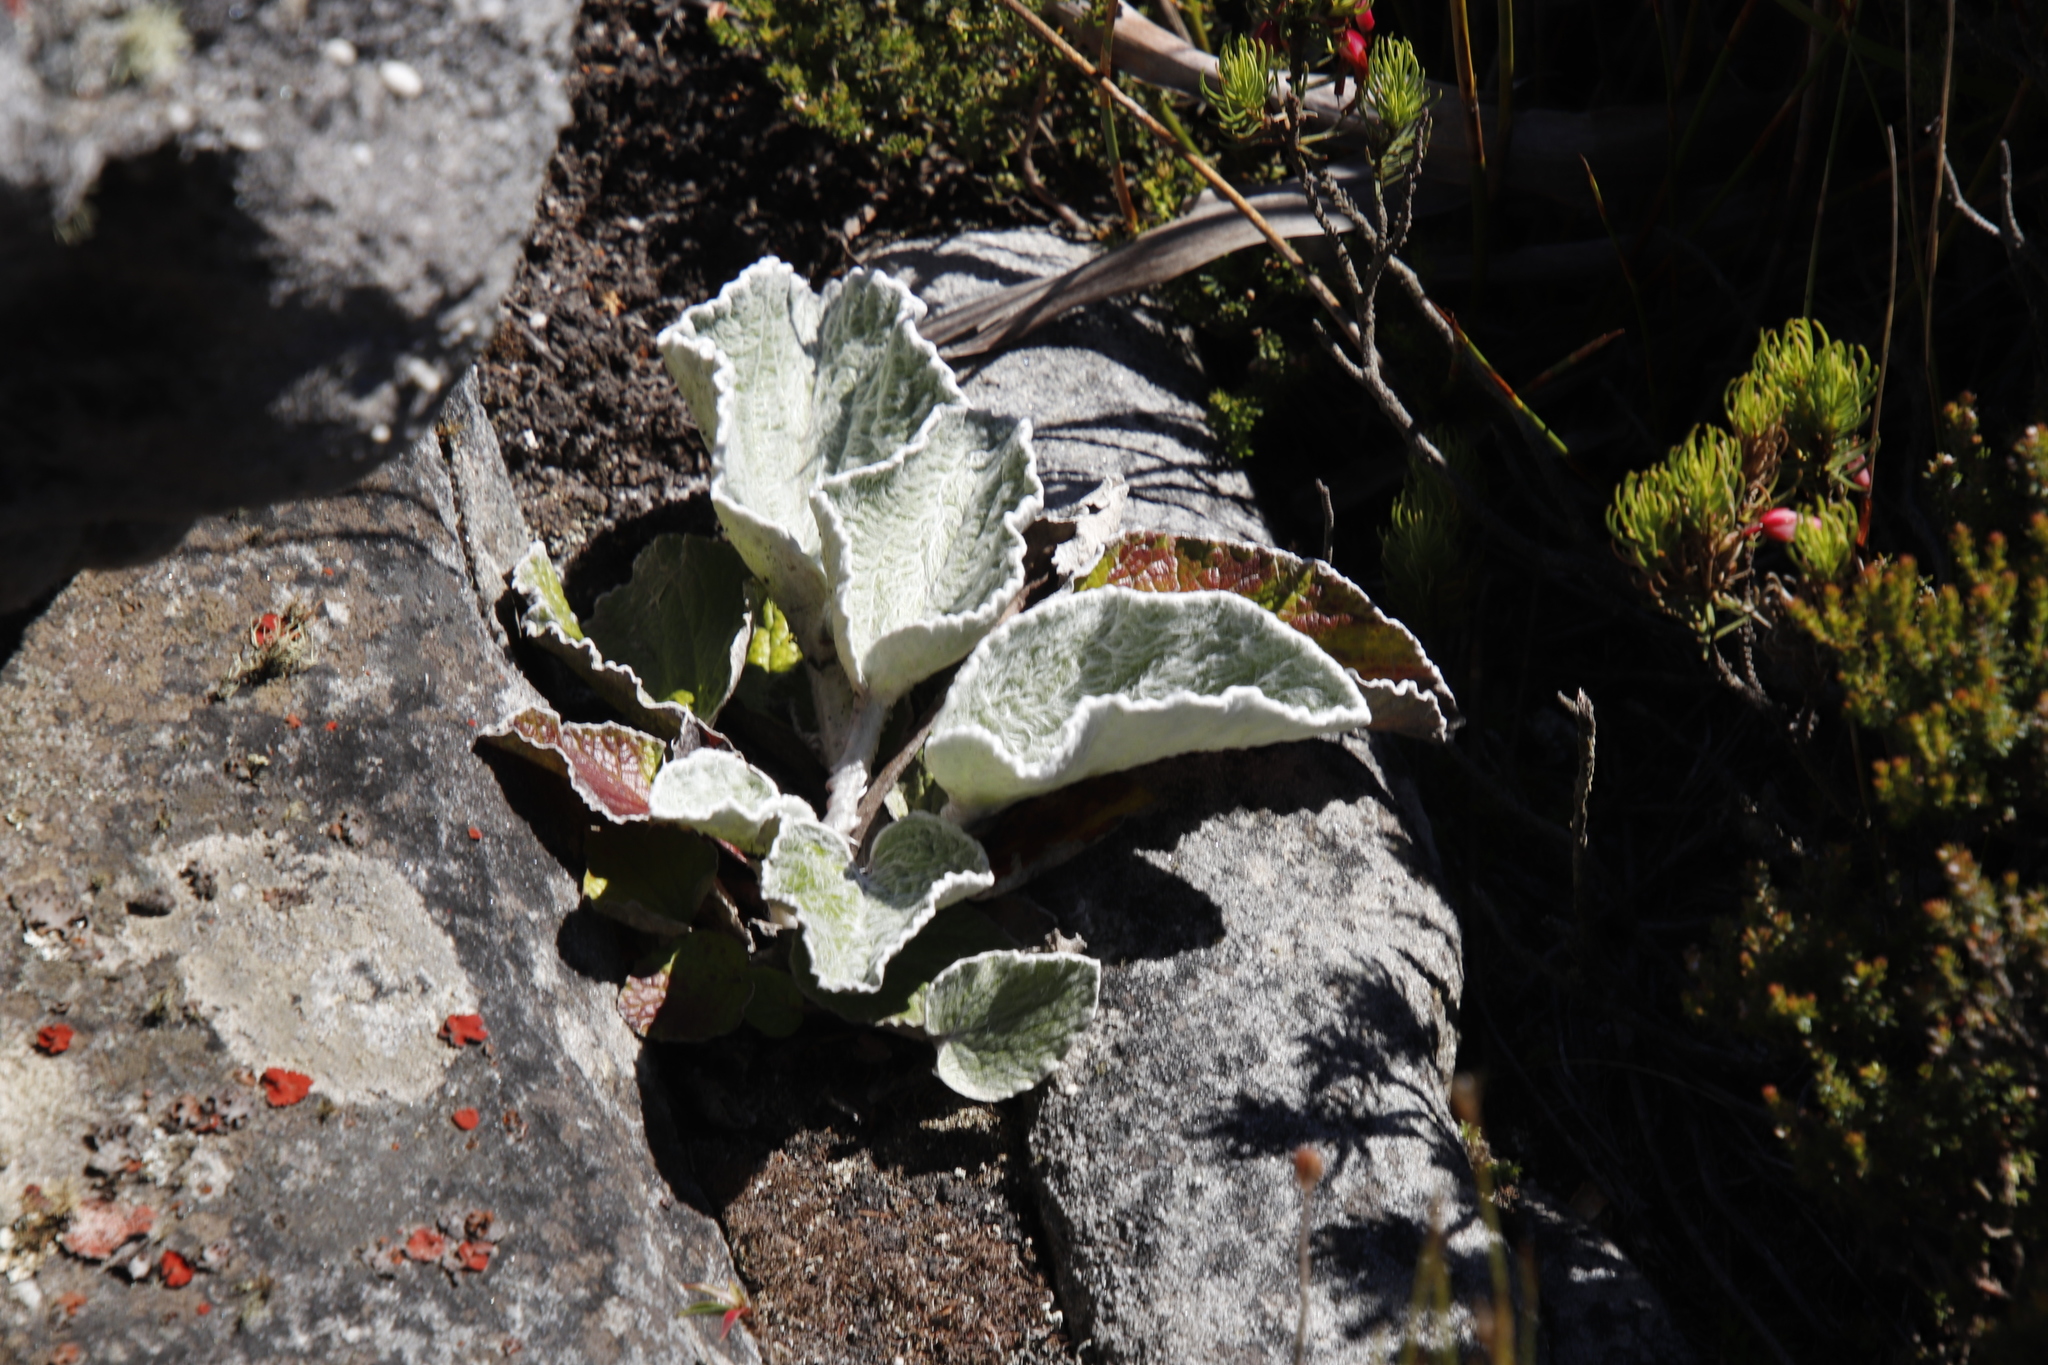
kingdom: Plantae
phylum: Tracheophyta
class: Magnoliopsida
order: Apiales
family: Apiaceae
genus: Hermas
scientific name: Hermas lanata
